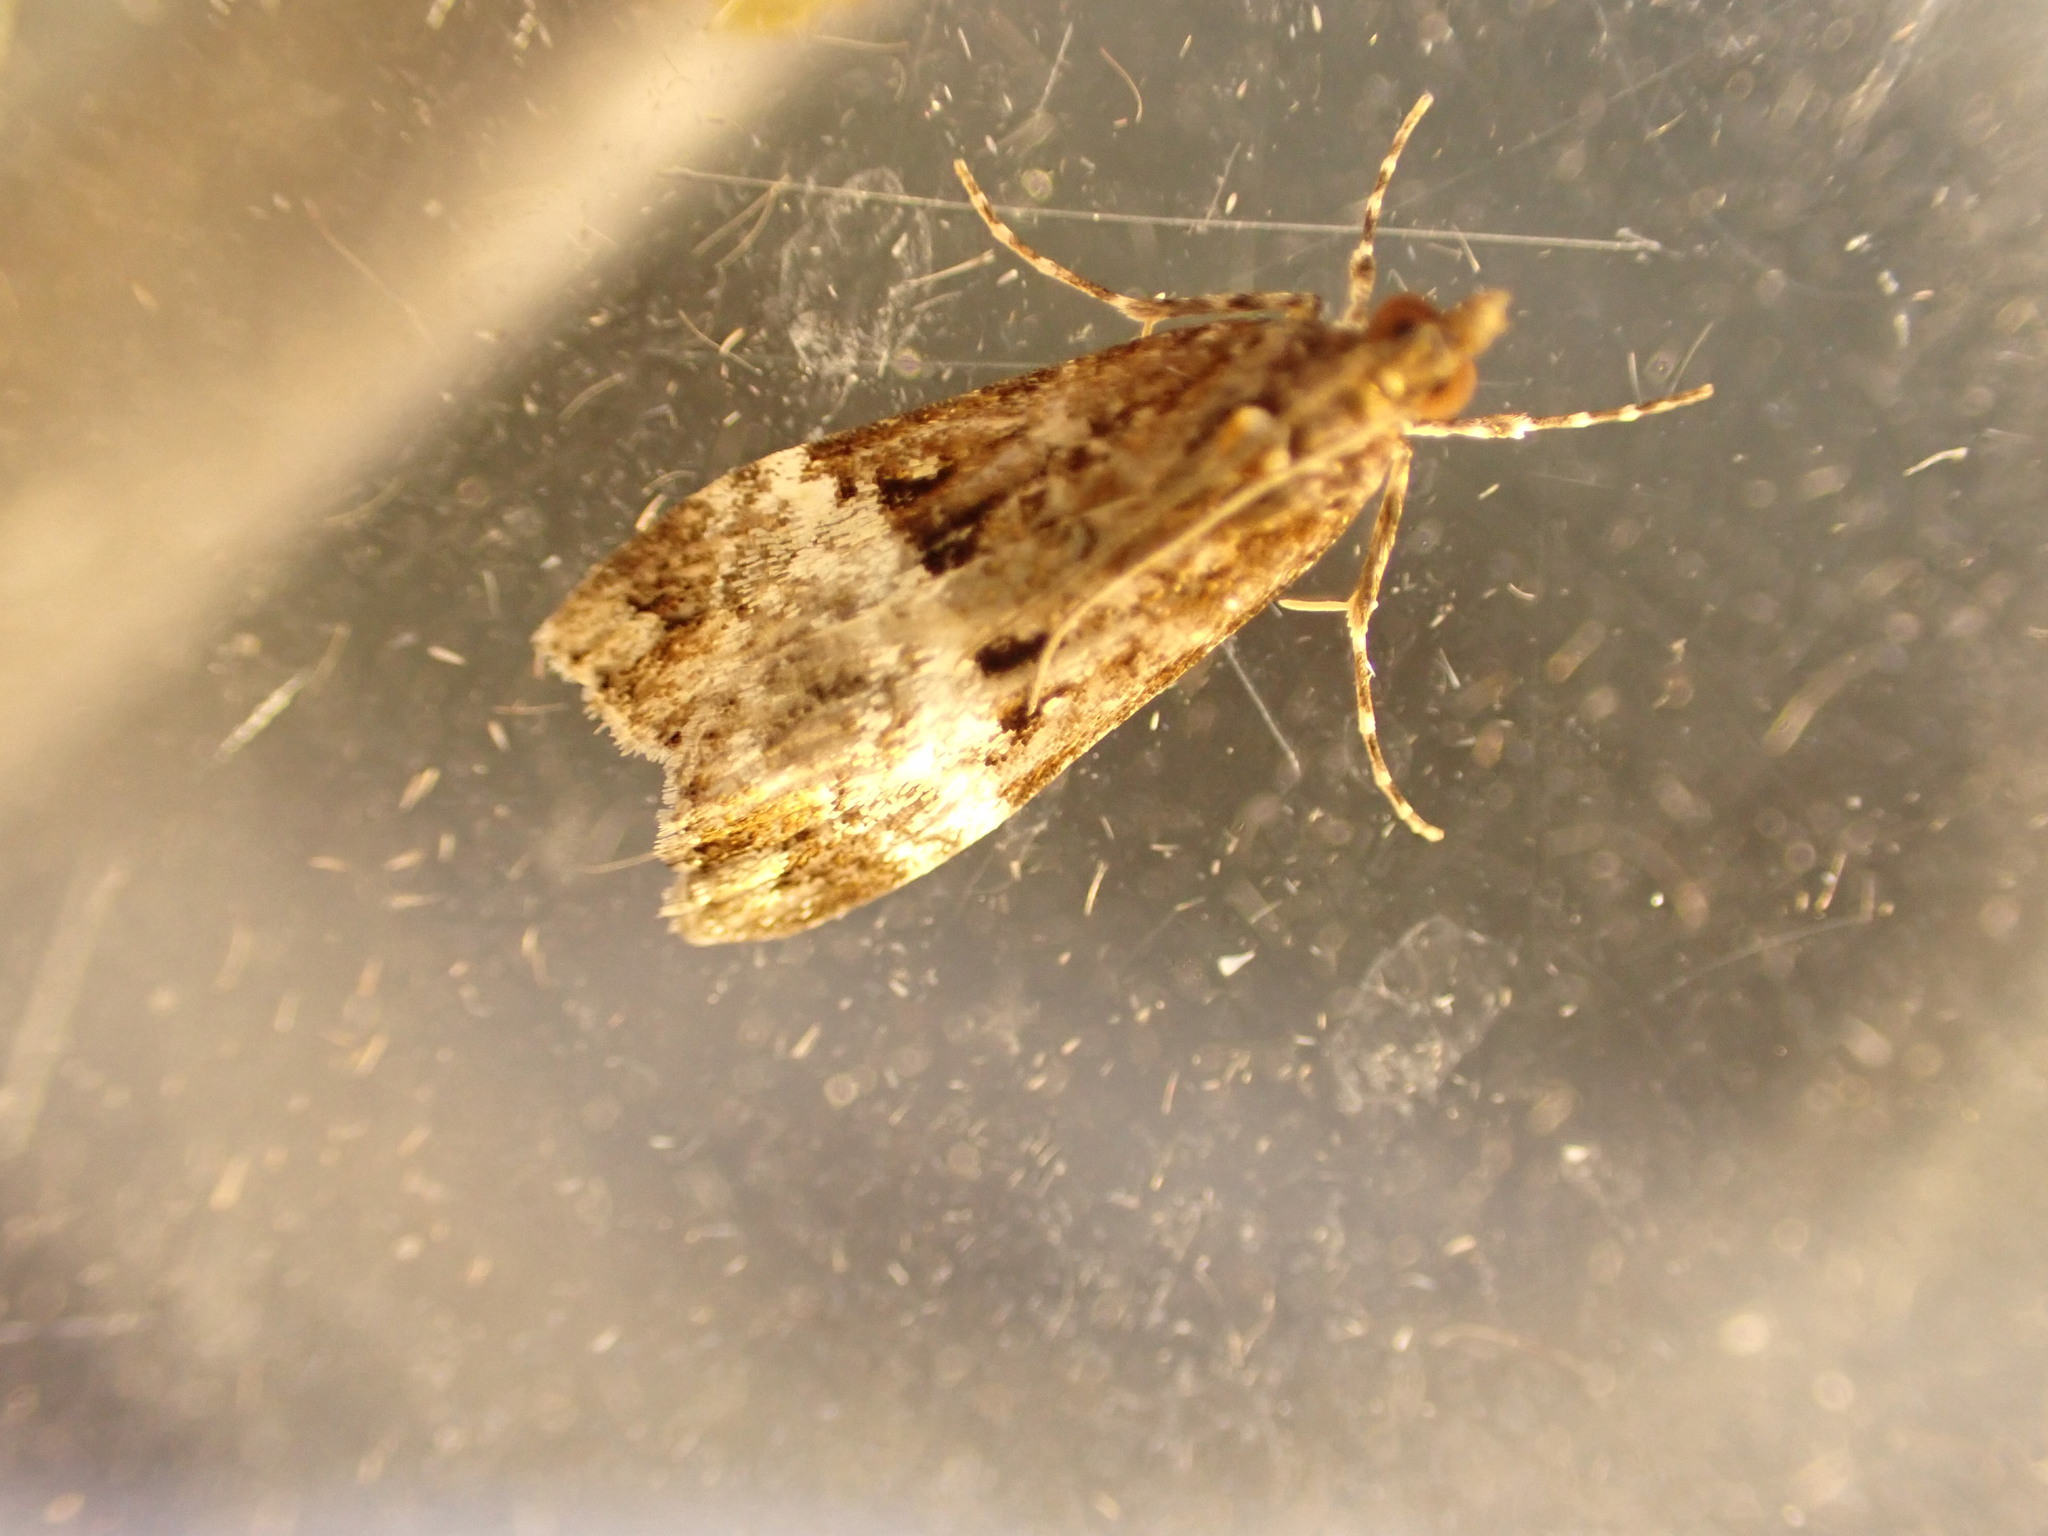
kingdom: Animalia
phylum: Arthropoda
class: Insecta
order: Lepidoptera
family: Crambidae
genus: Scoparia
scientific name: Scoparia minusculalis
